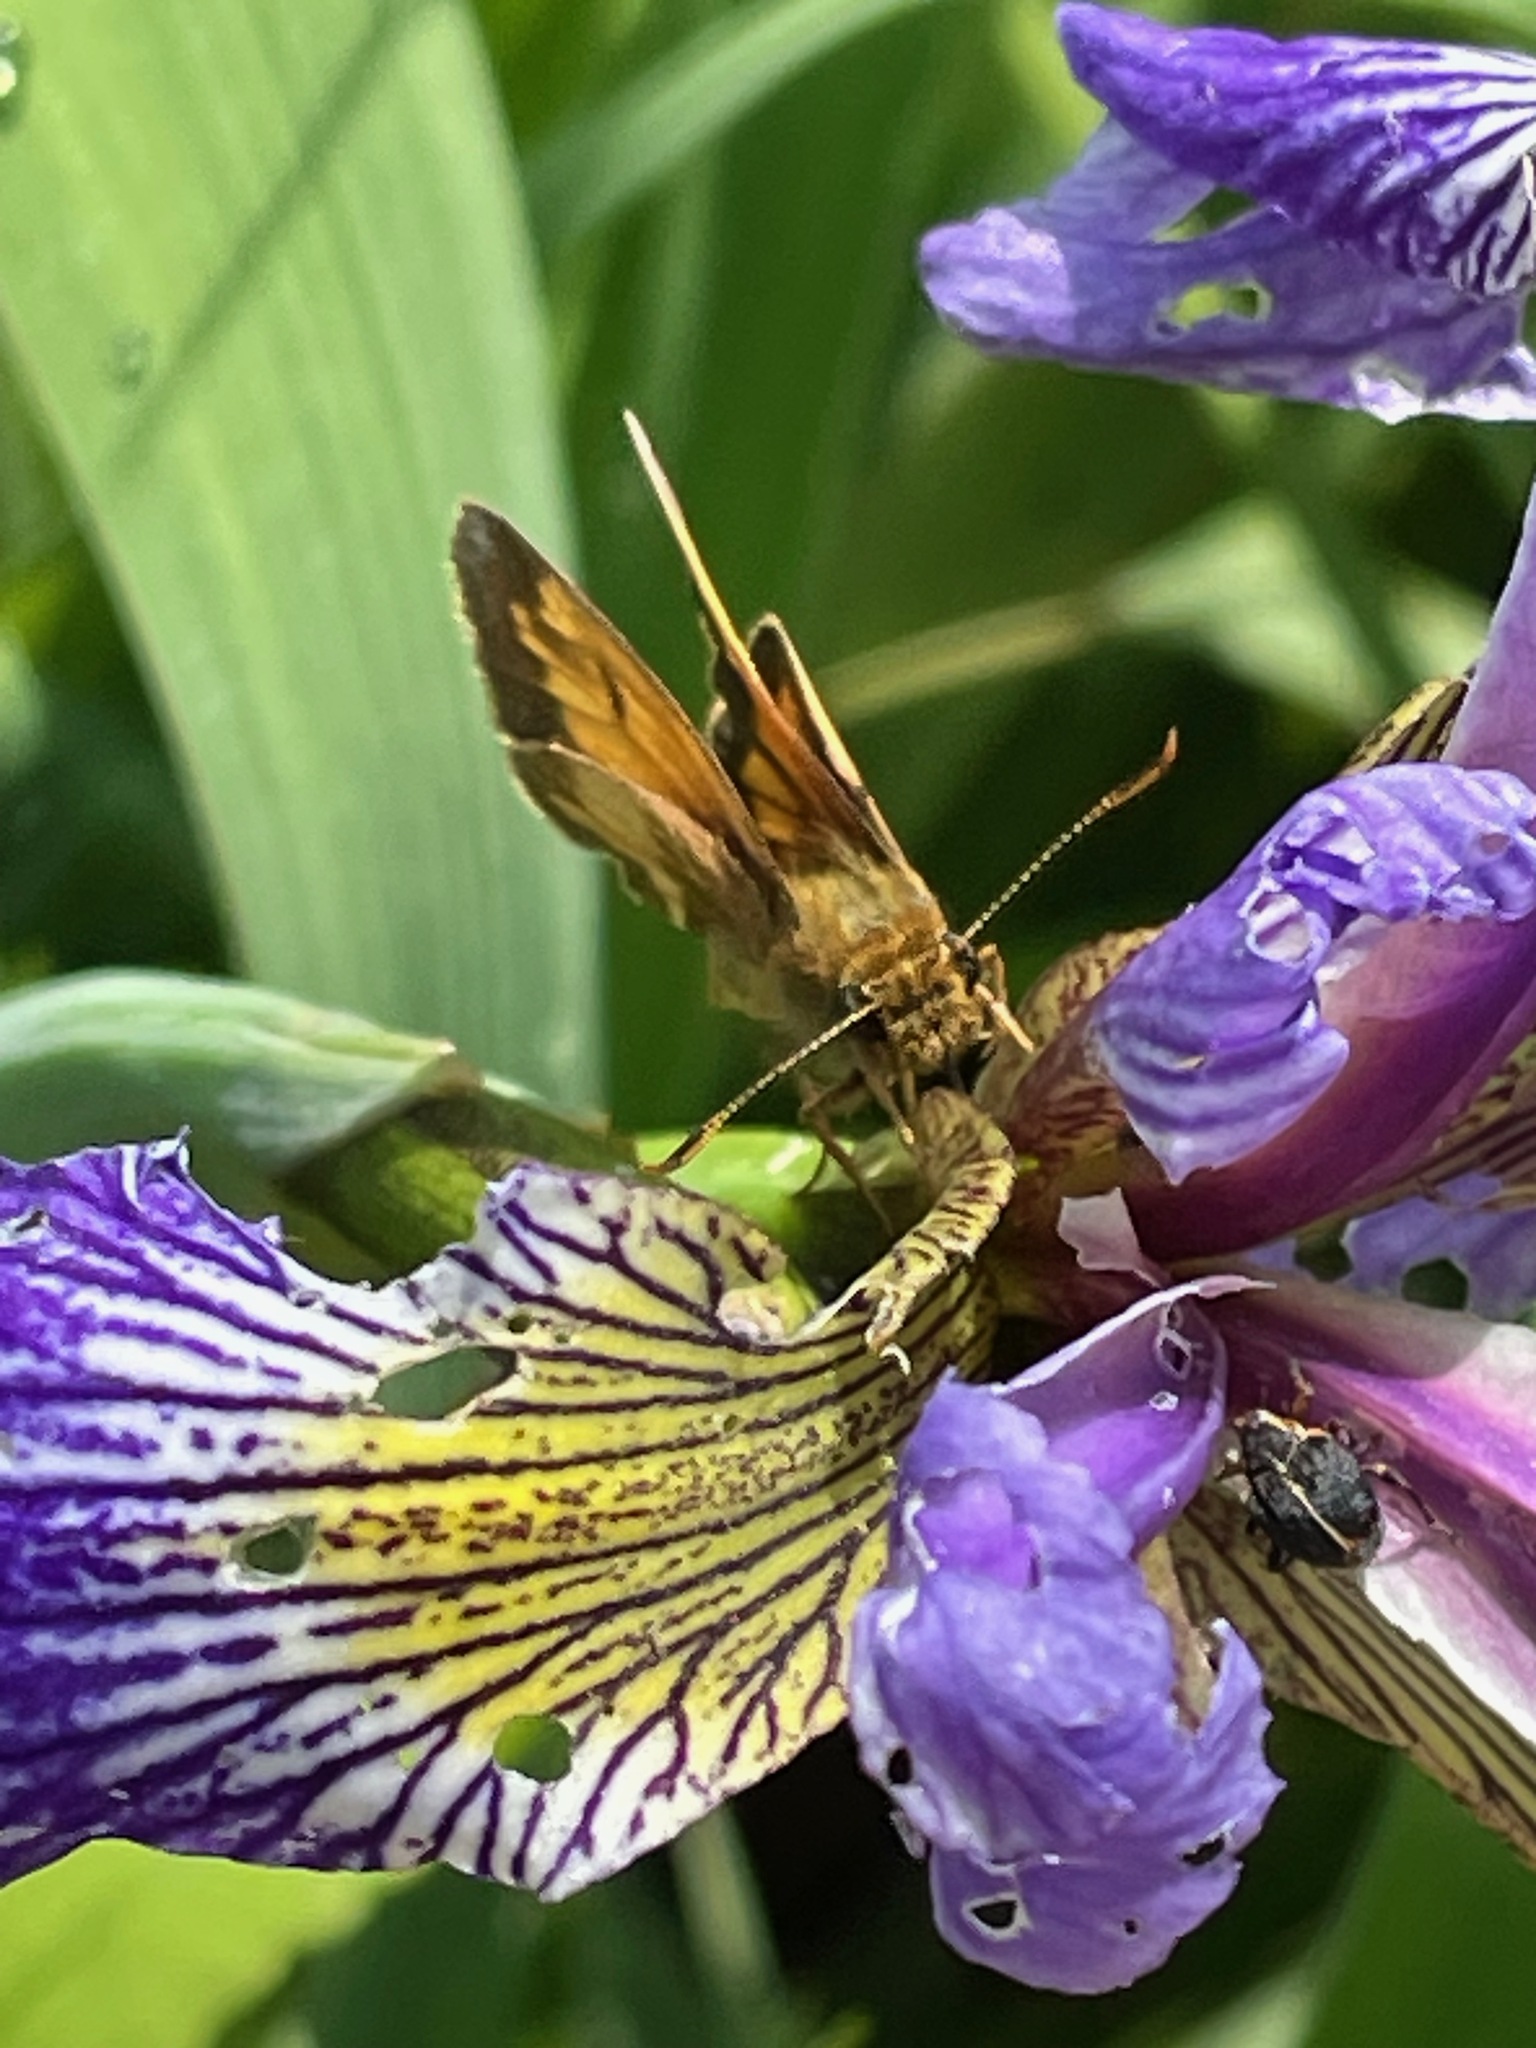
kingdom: Animalia
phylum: Arthropoda
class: Insecta
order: Lepidoptera
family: Hesperiidae
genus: Lon
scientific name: Lon hobomok
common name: Hobomok skipper
